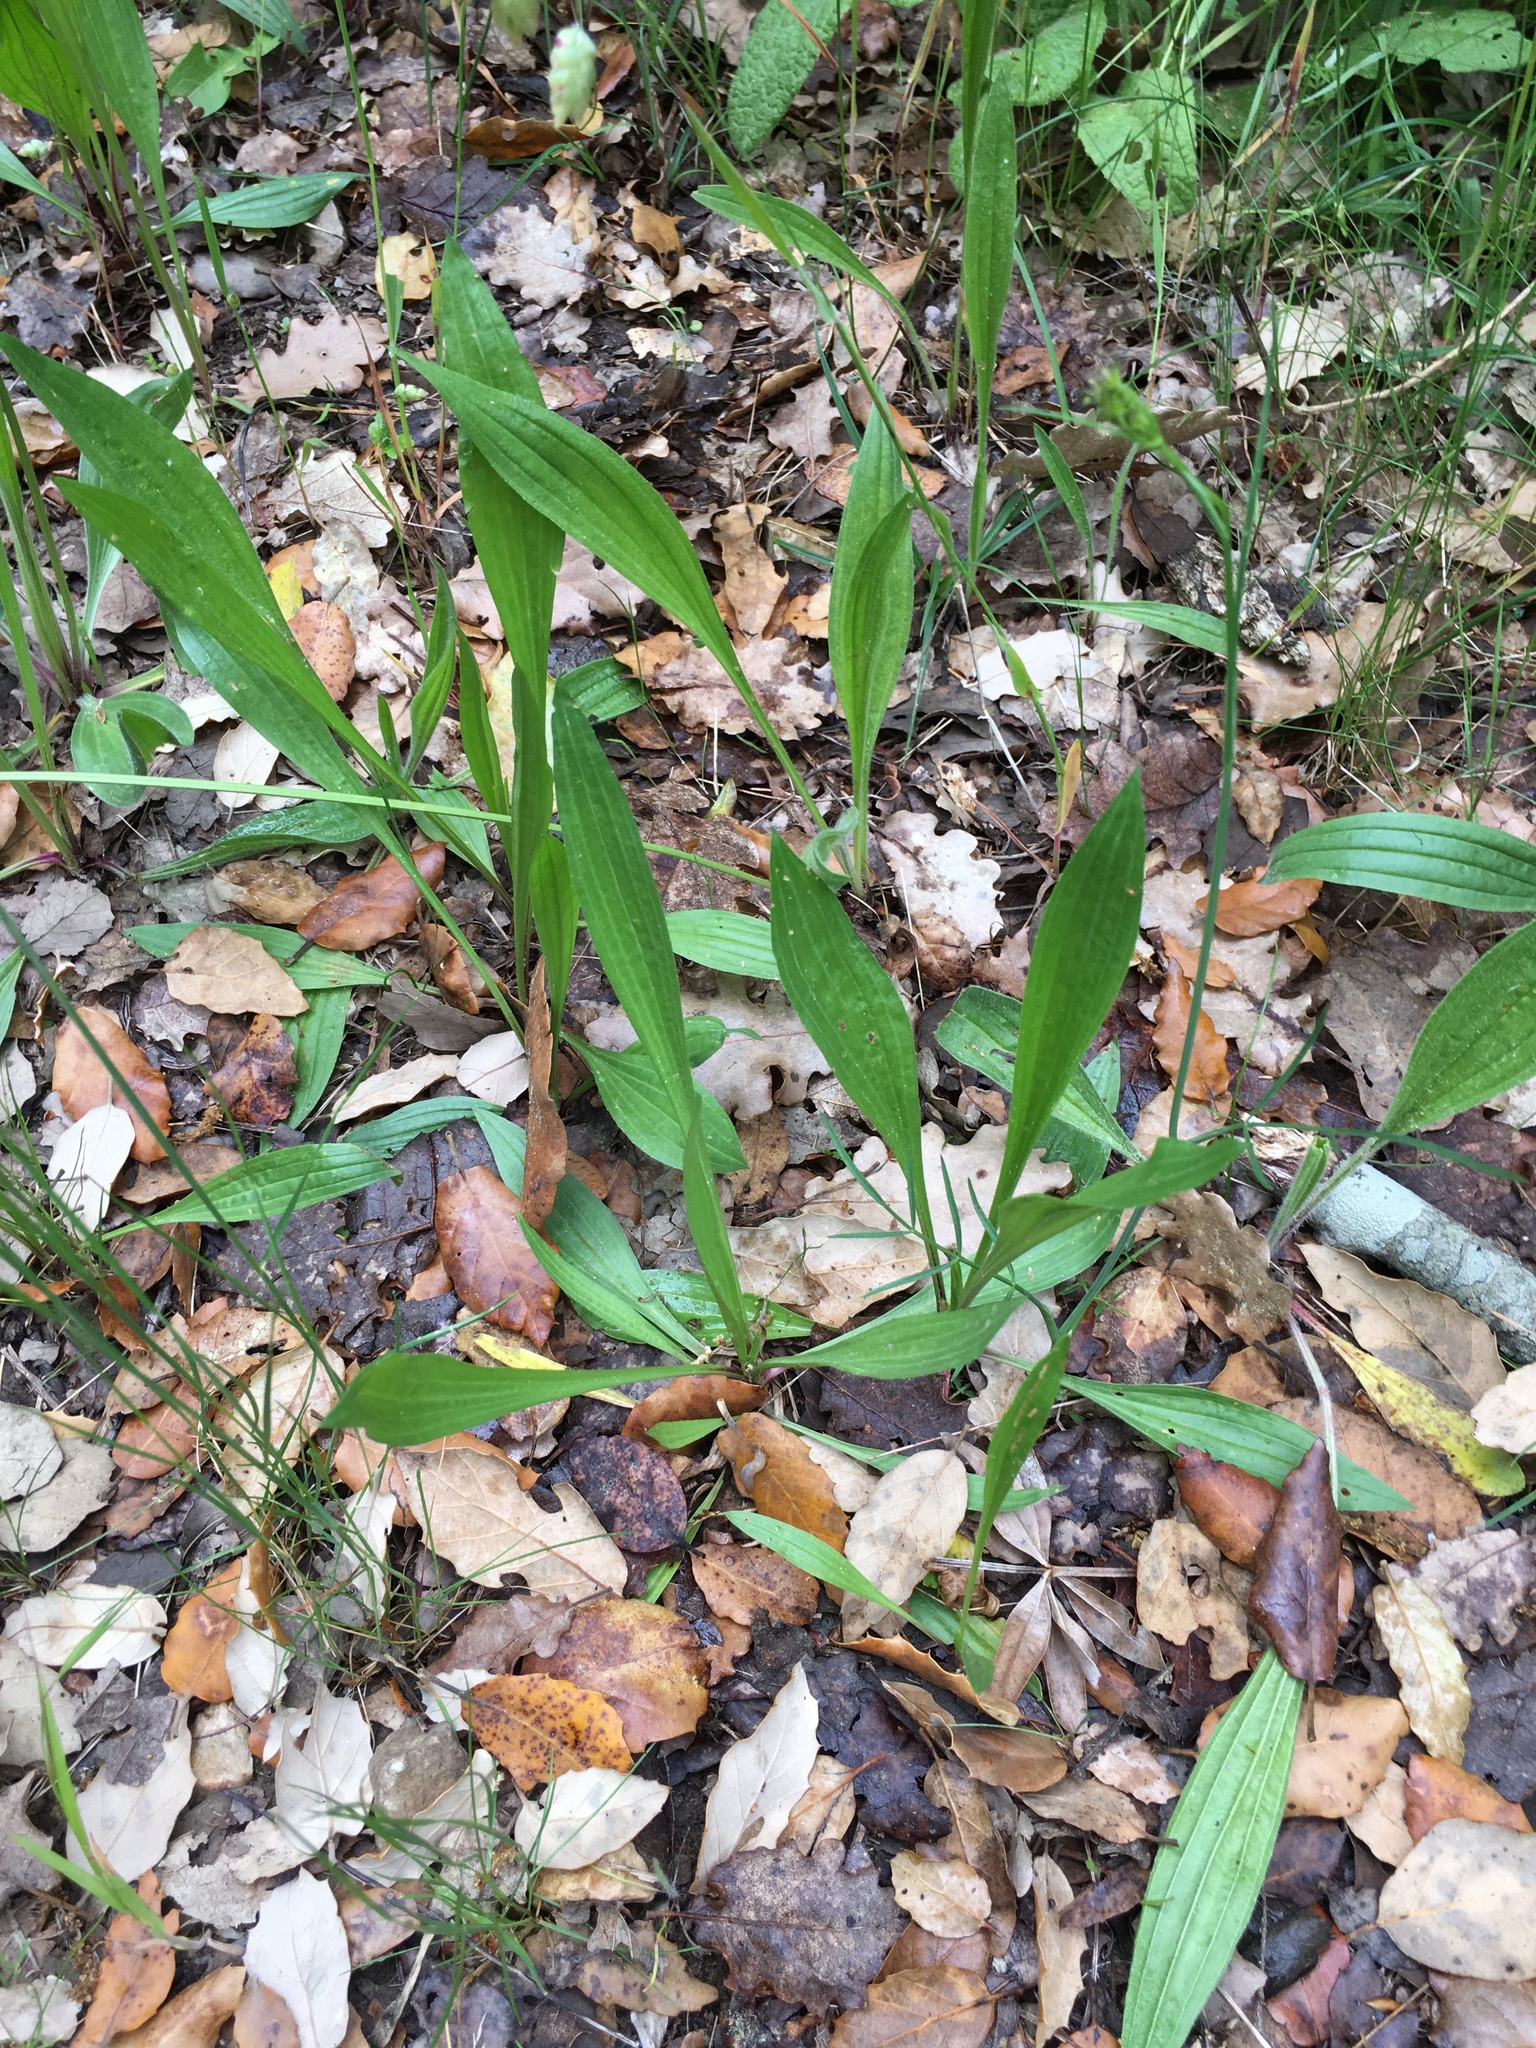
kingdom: Plantae
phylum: Tracheophyta
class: Magnoliopsida
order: Lamiales
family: Plantaginaceae
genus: Plantago
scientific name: Plantago lanceolata
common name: Ribwort plantain
